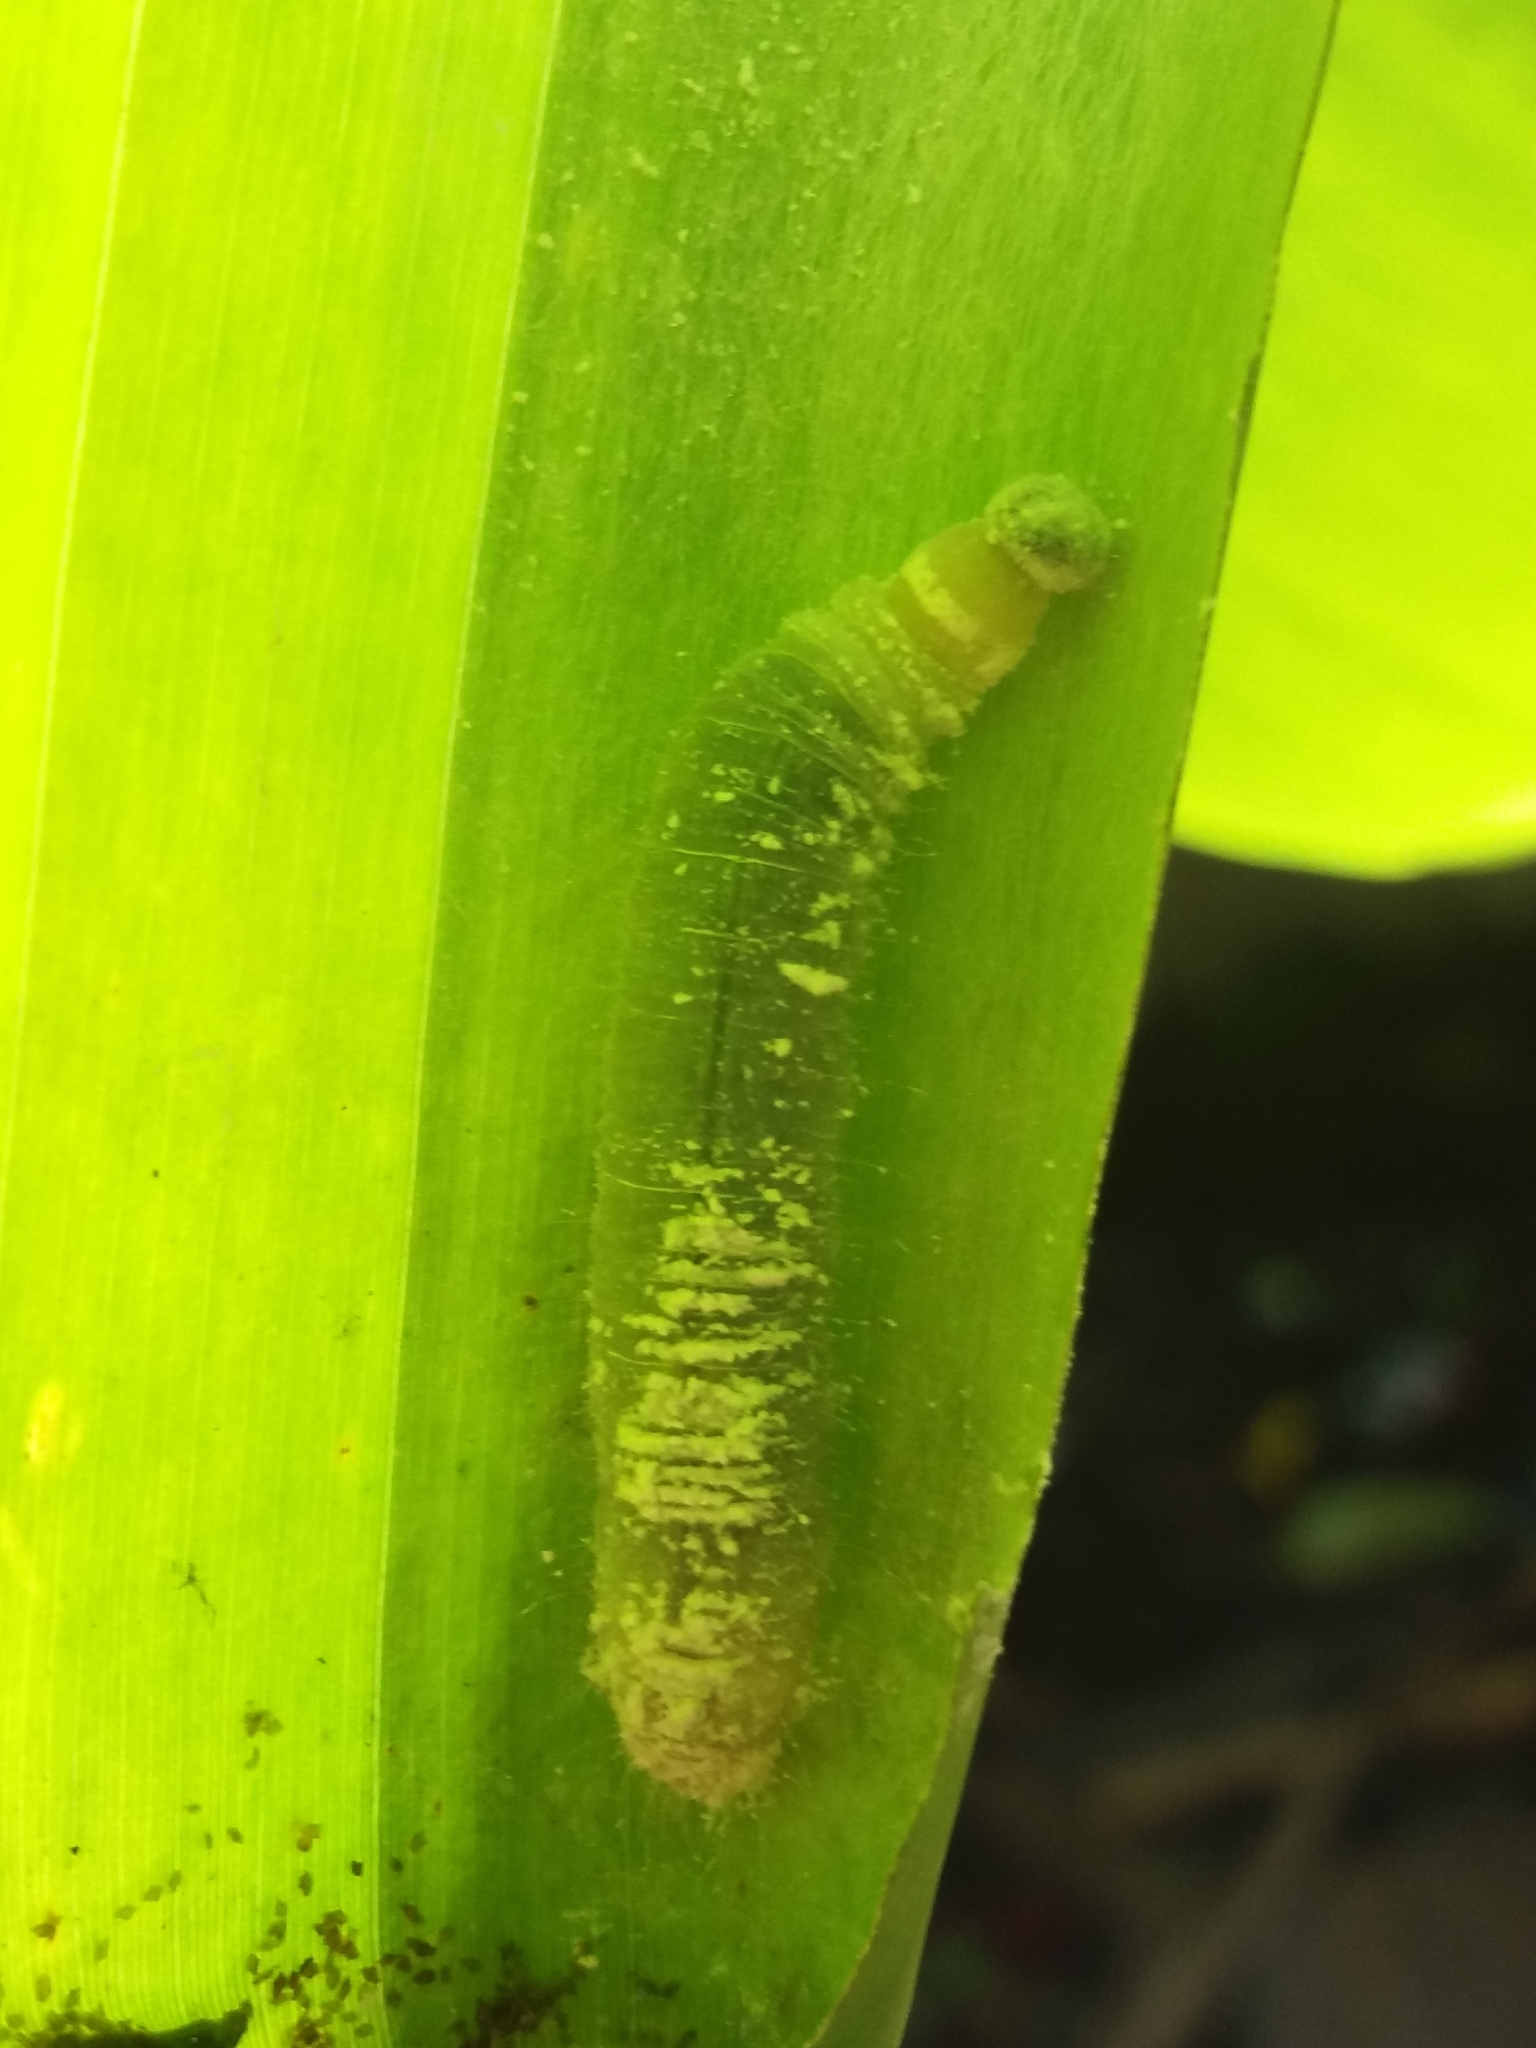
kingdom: Animalia
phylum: Arthropoda
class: Insecta
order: Lepidoptera
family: Hesperiidae
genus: Erionota
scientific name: Erionota torus
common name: Rounded palm-redeye
